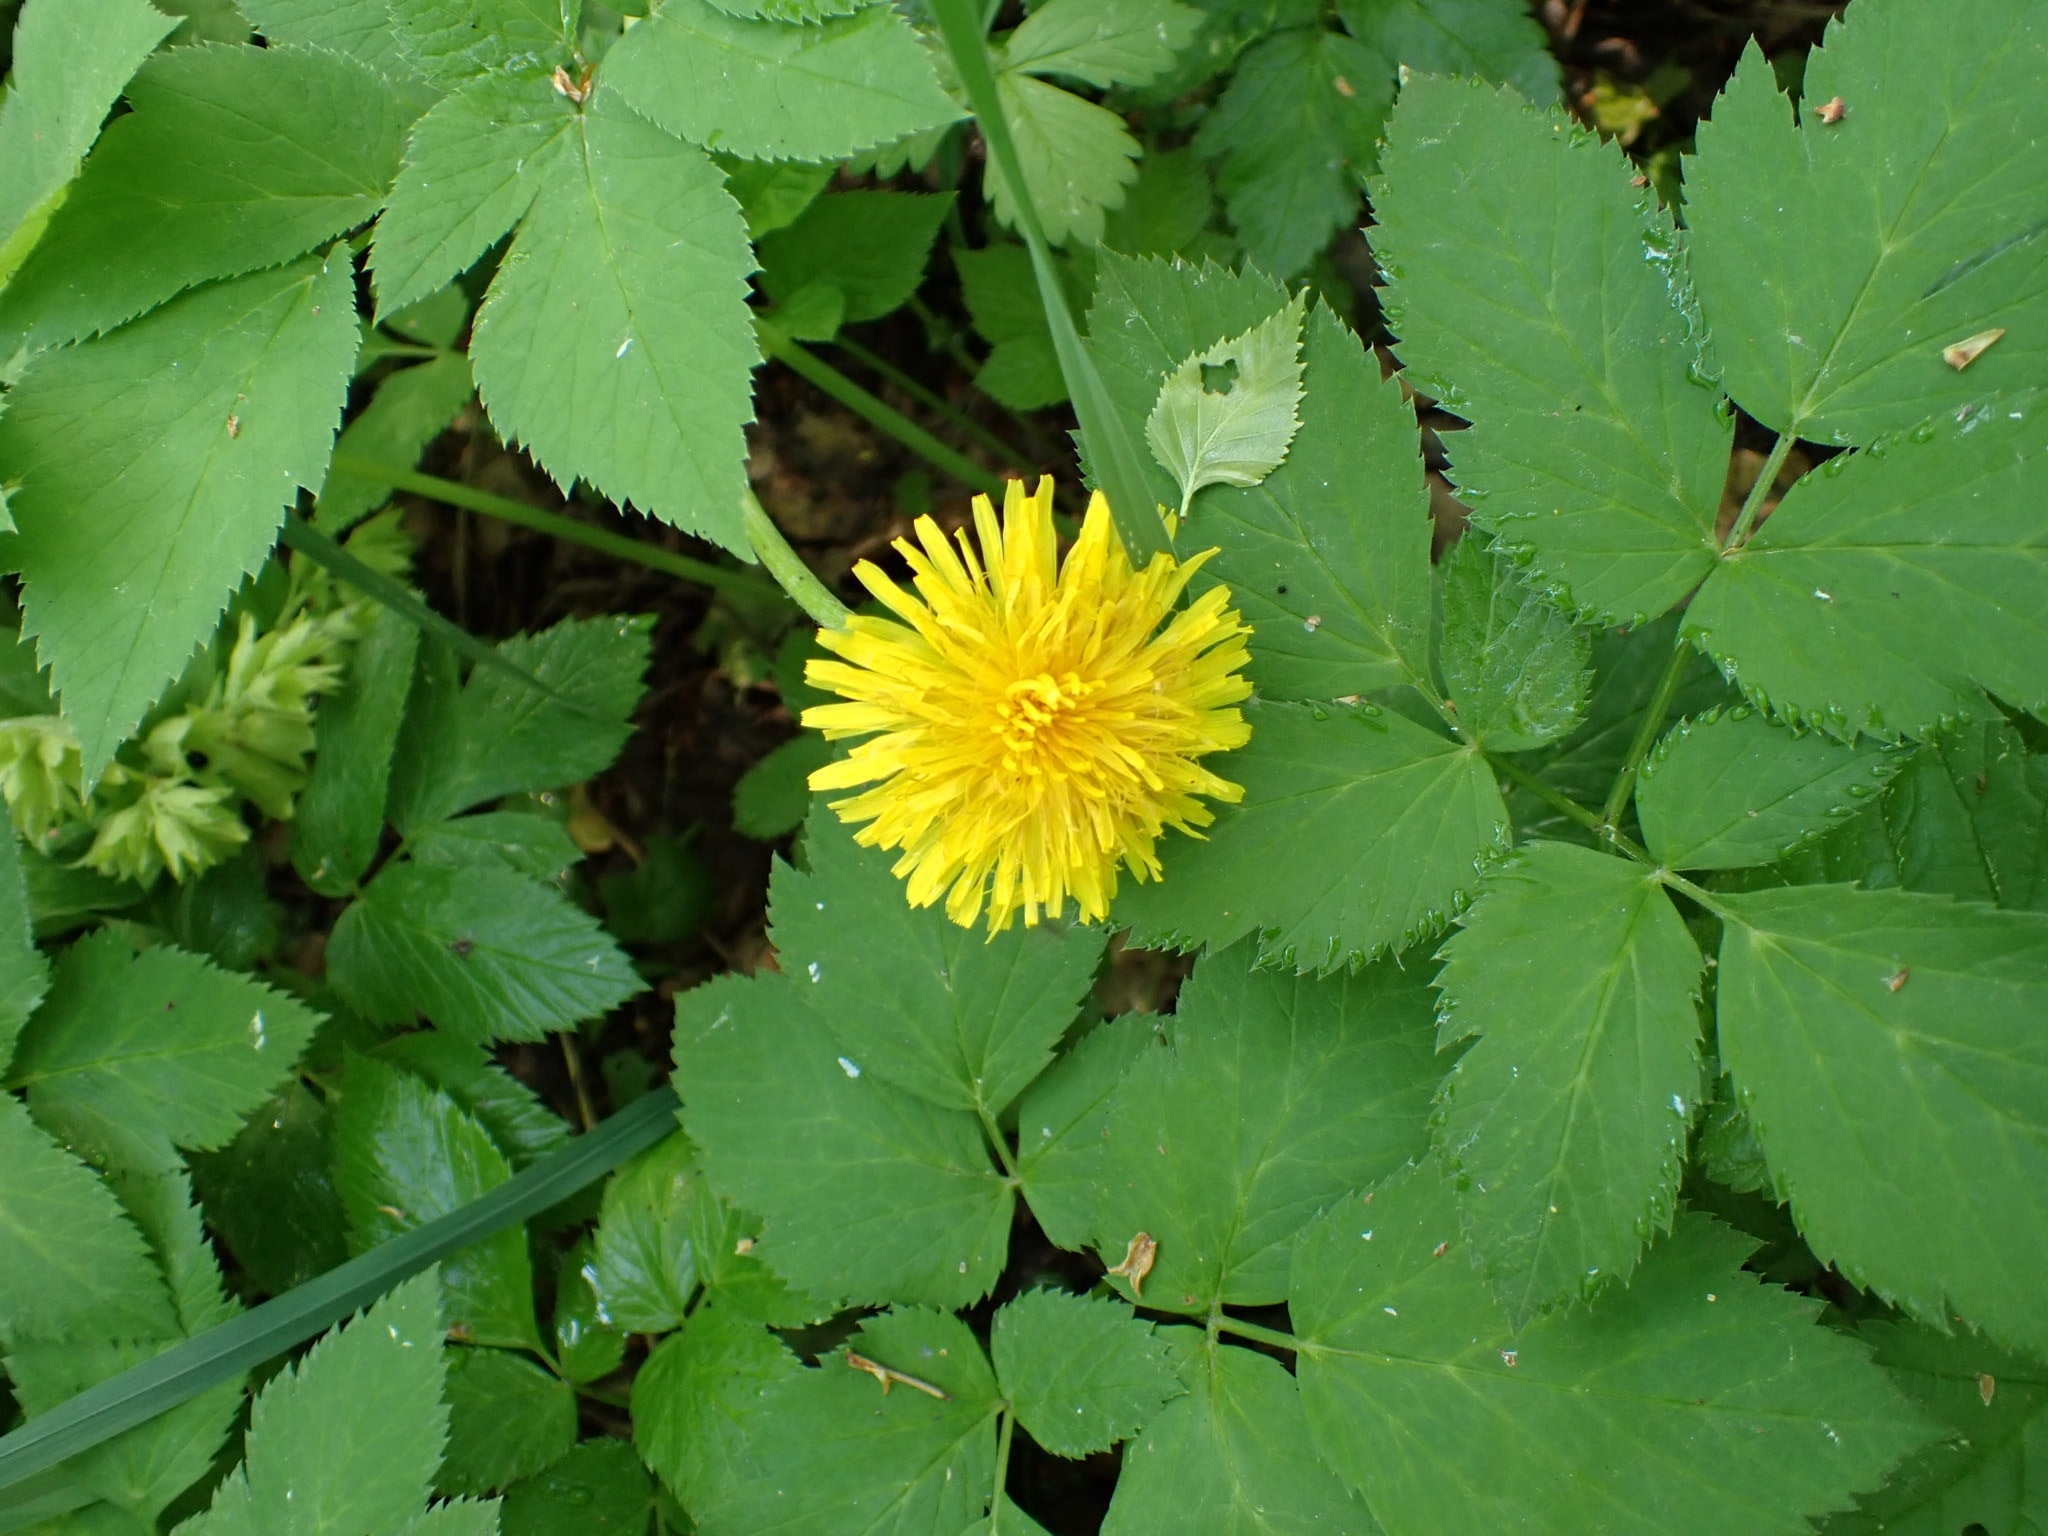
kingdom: Plantae
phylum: Tracheophyta
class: Magnoliopsida
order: Asterales
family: Asteraceae
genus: Taraxacum
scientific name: Taraxacum officinale
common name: Common dandelion
